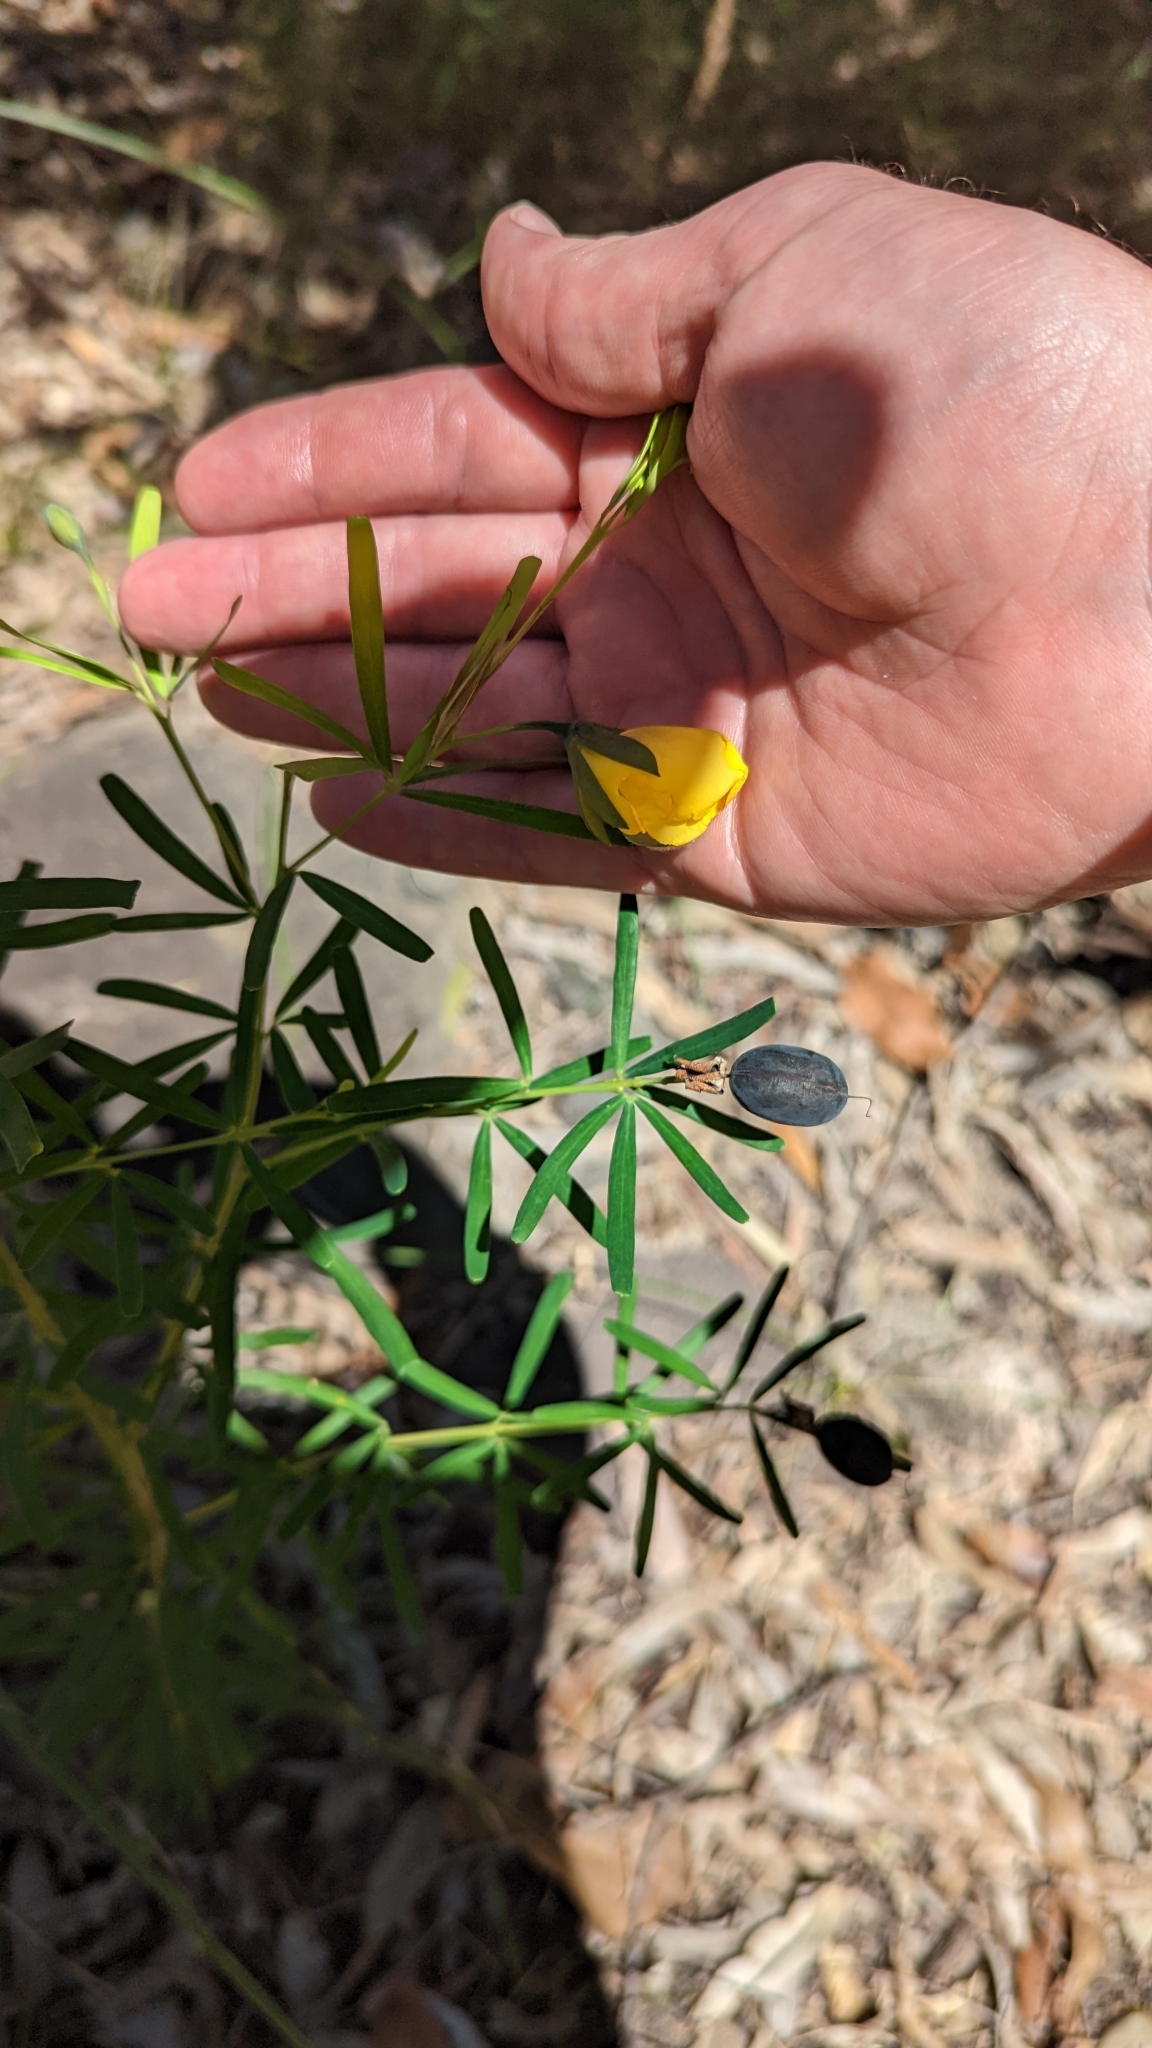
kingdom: Plantae
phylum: Tracheophyta
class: Magnoliopsida
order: Fabales
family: Fabaceae
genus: Gompholobium
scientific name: Gompholobium latifolium
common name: Broadleaf wedge-pea
